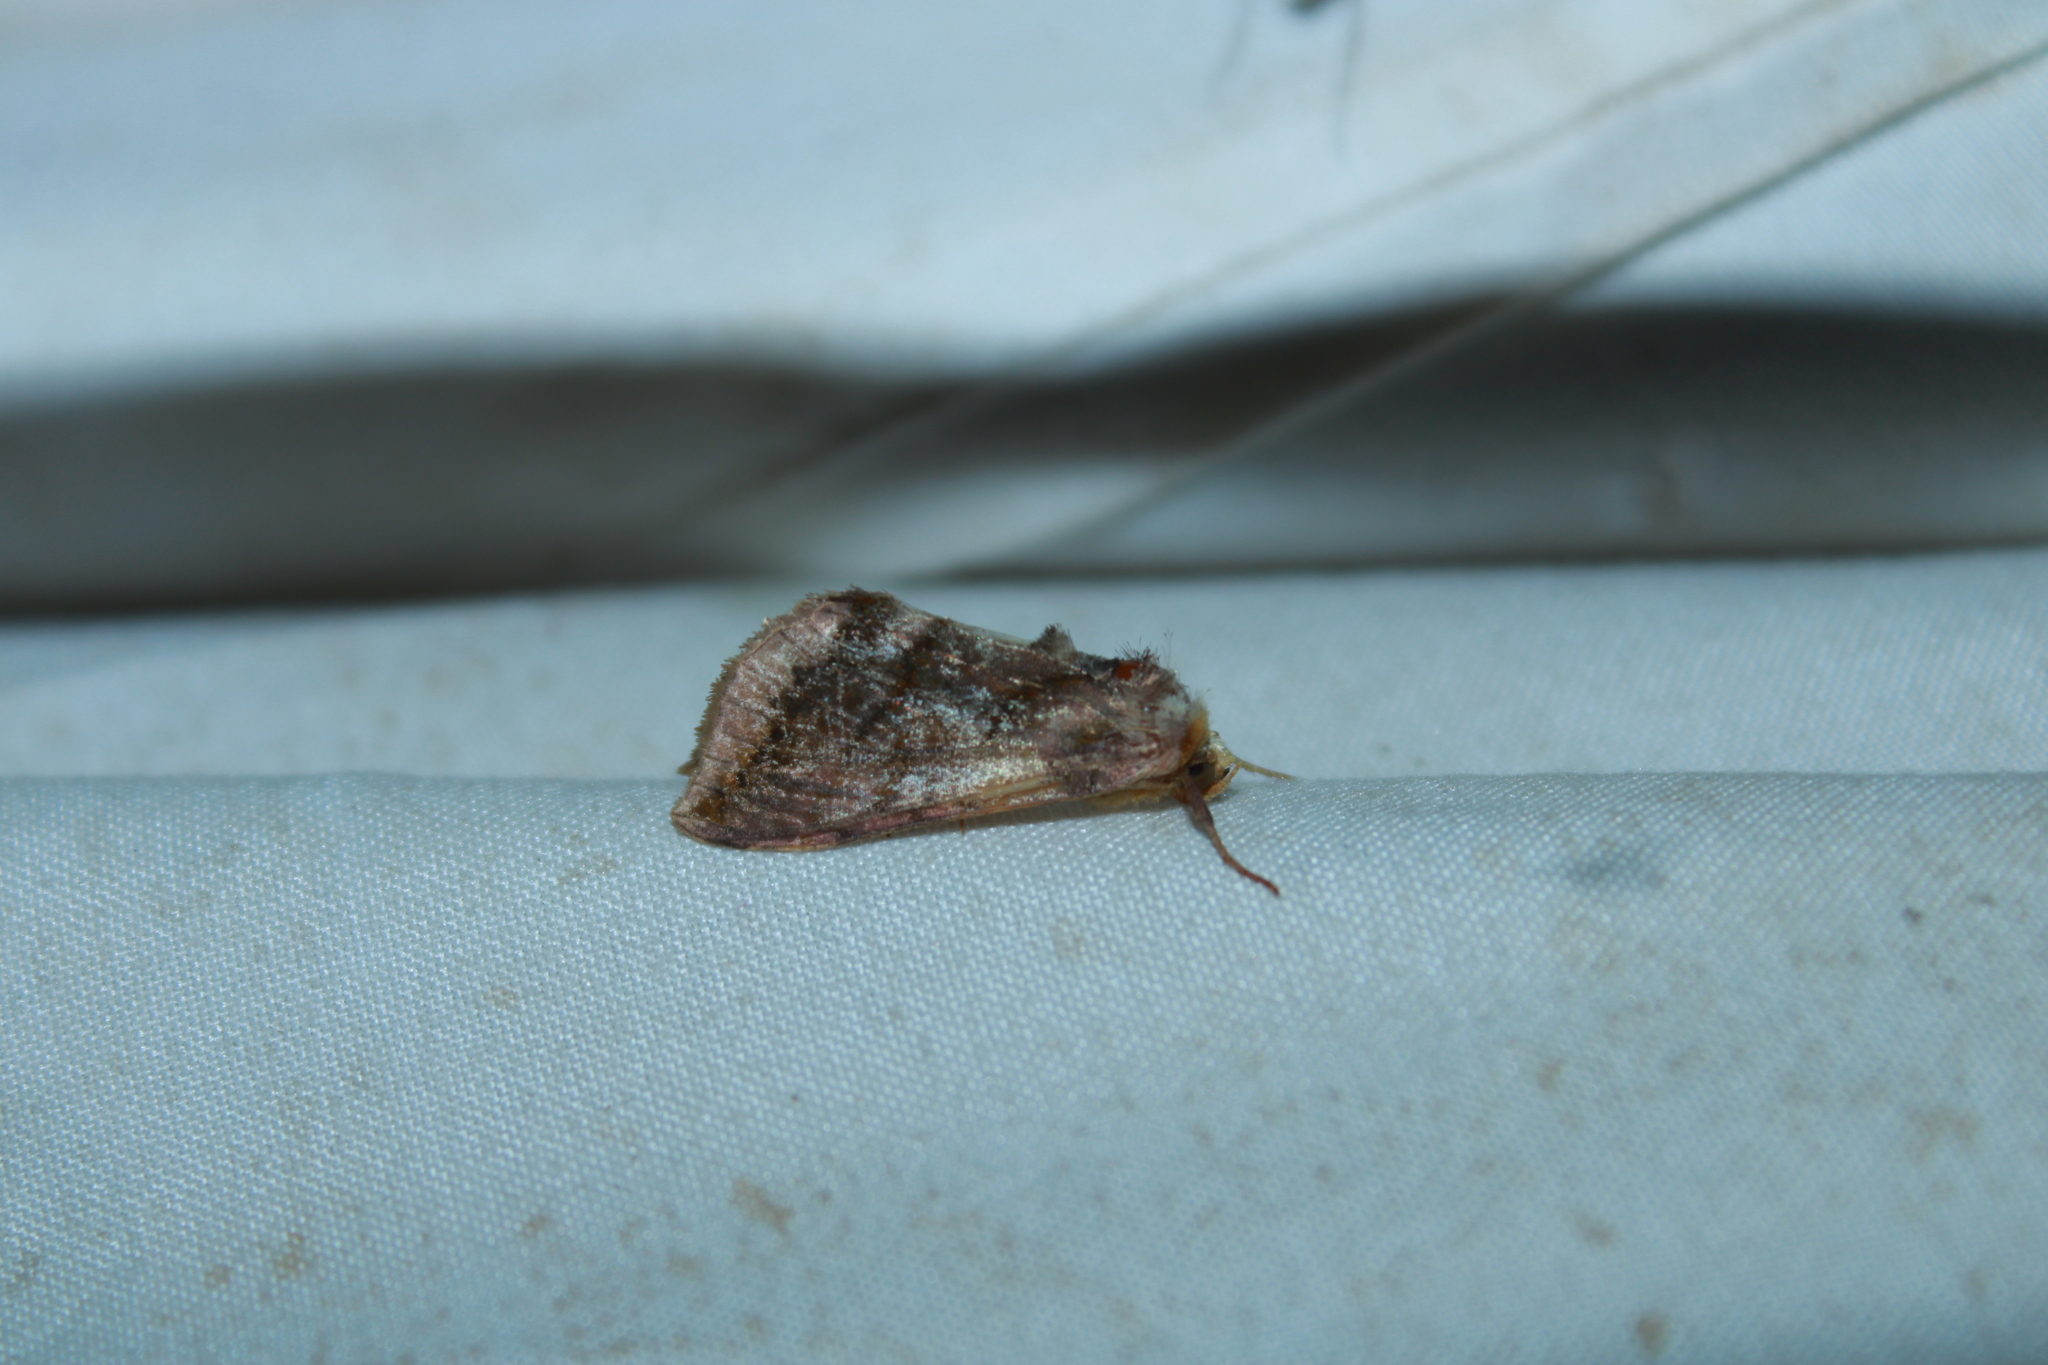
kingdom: Animalia
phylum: Arthropoda
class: Insecta
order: Lepidoptera
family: Noctuidae
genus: Allagrapha
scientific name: Allagrapha aerea
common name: Unspotted looper moth
